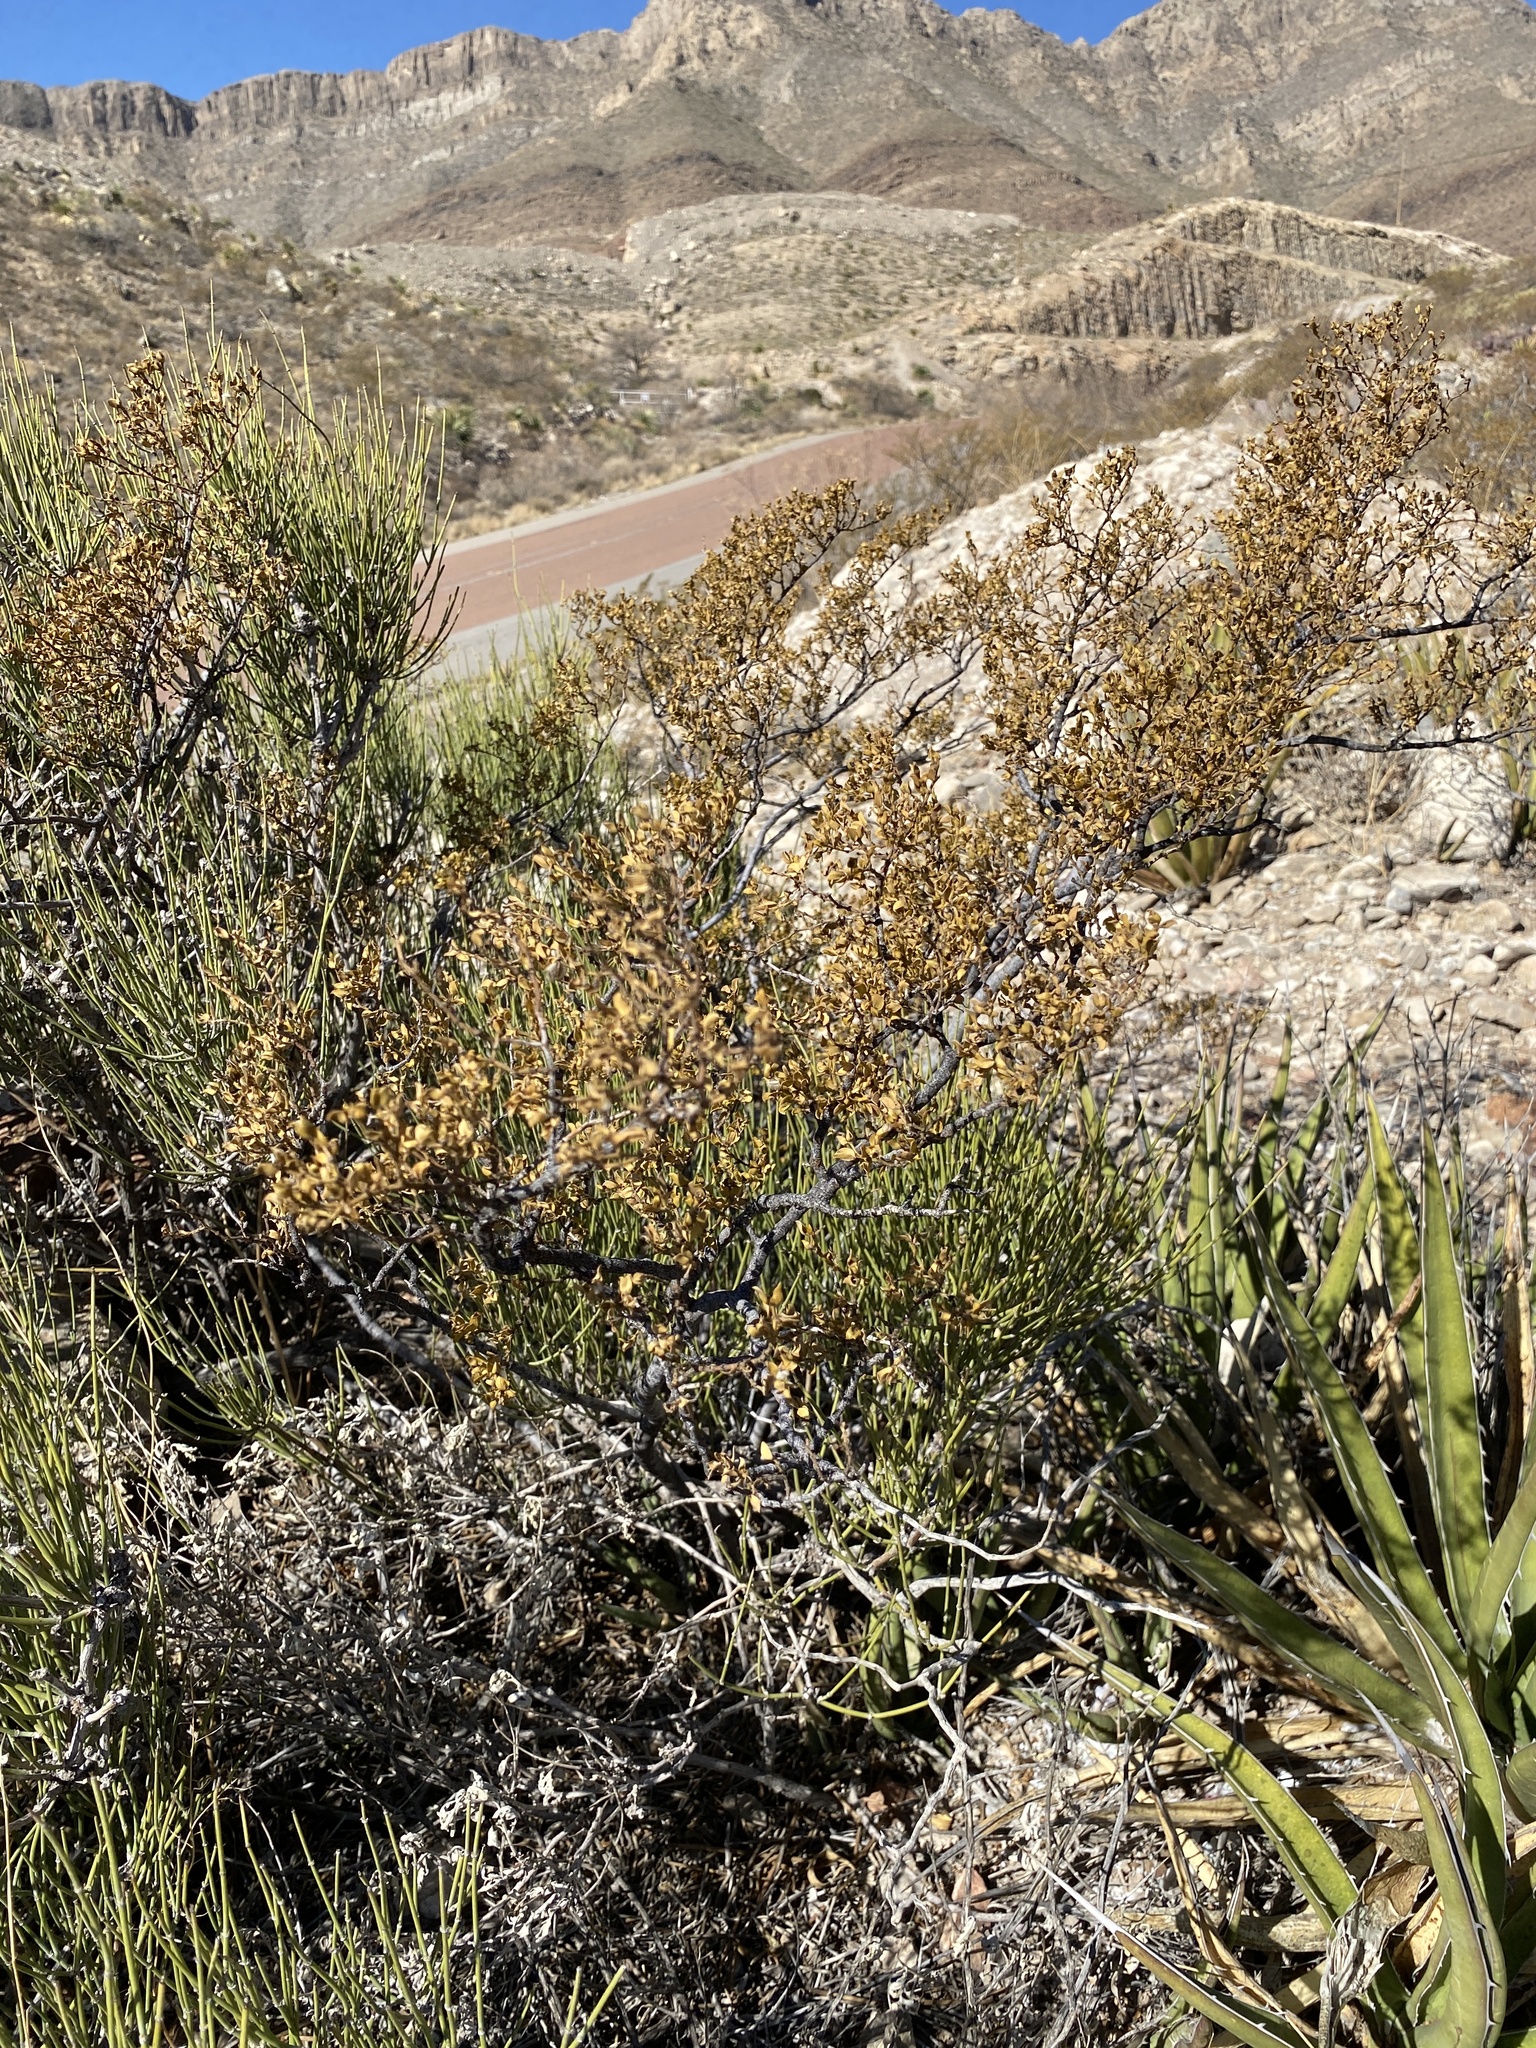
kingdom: Plantae
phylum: Tracheophyta
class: Magnoliopsida
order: Zygophyllales
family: Zygophyllaceae
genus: Larrea
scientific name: Larrea tridentata
